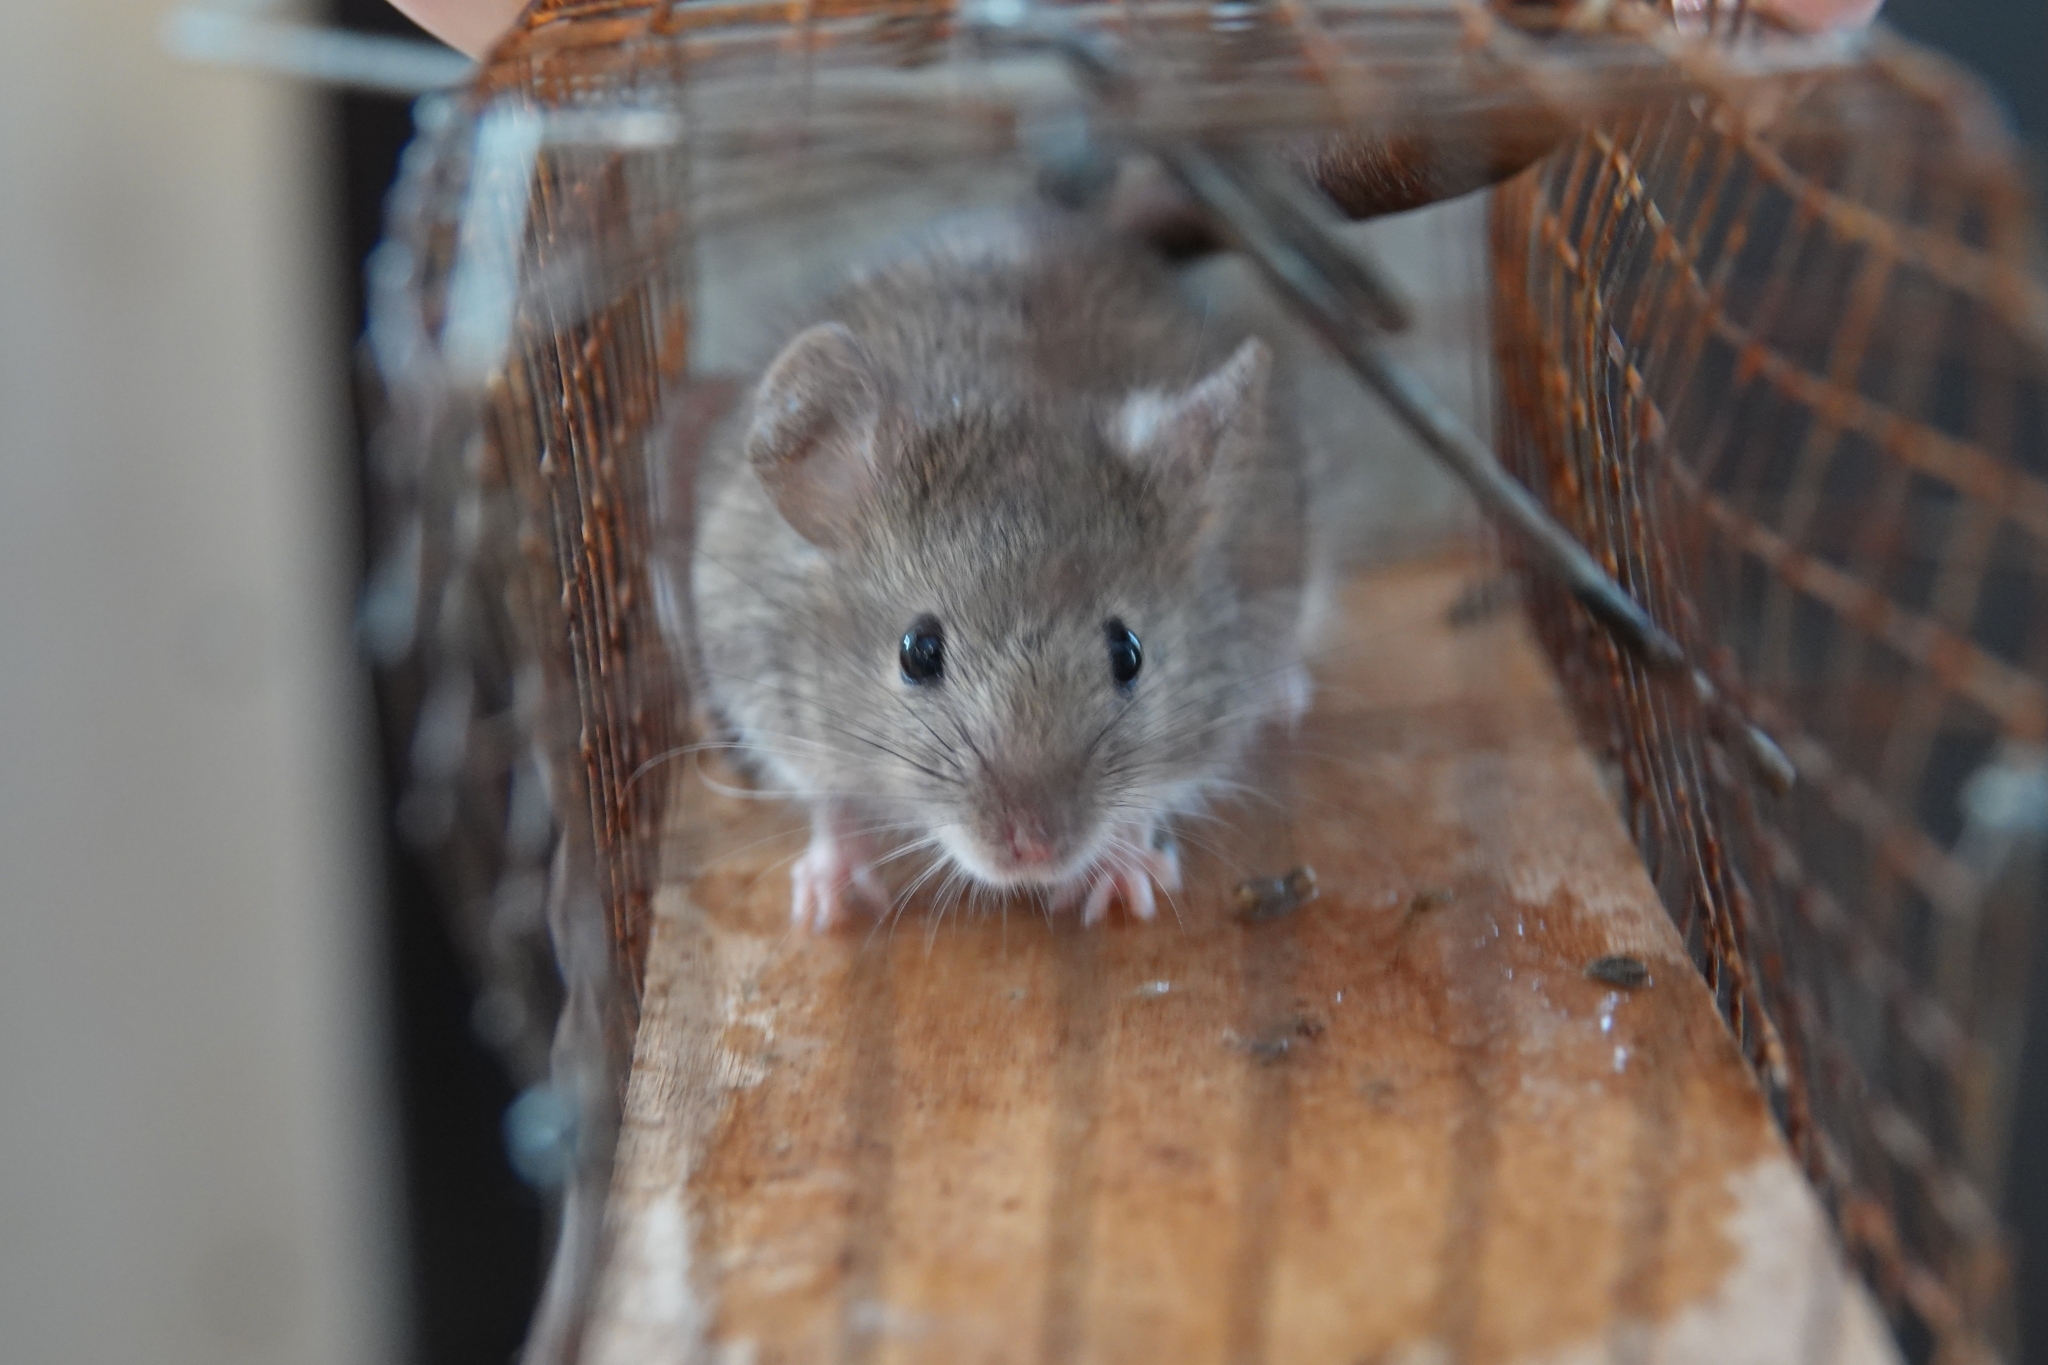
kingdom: Animalia
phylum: Chordata
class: Mammalia
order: Rodentia
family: Muridae
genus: Mus
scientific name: Mus musculus
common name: House mouse
